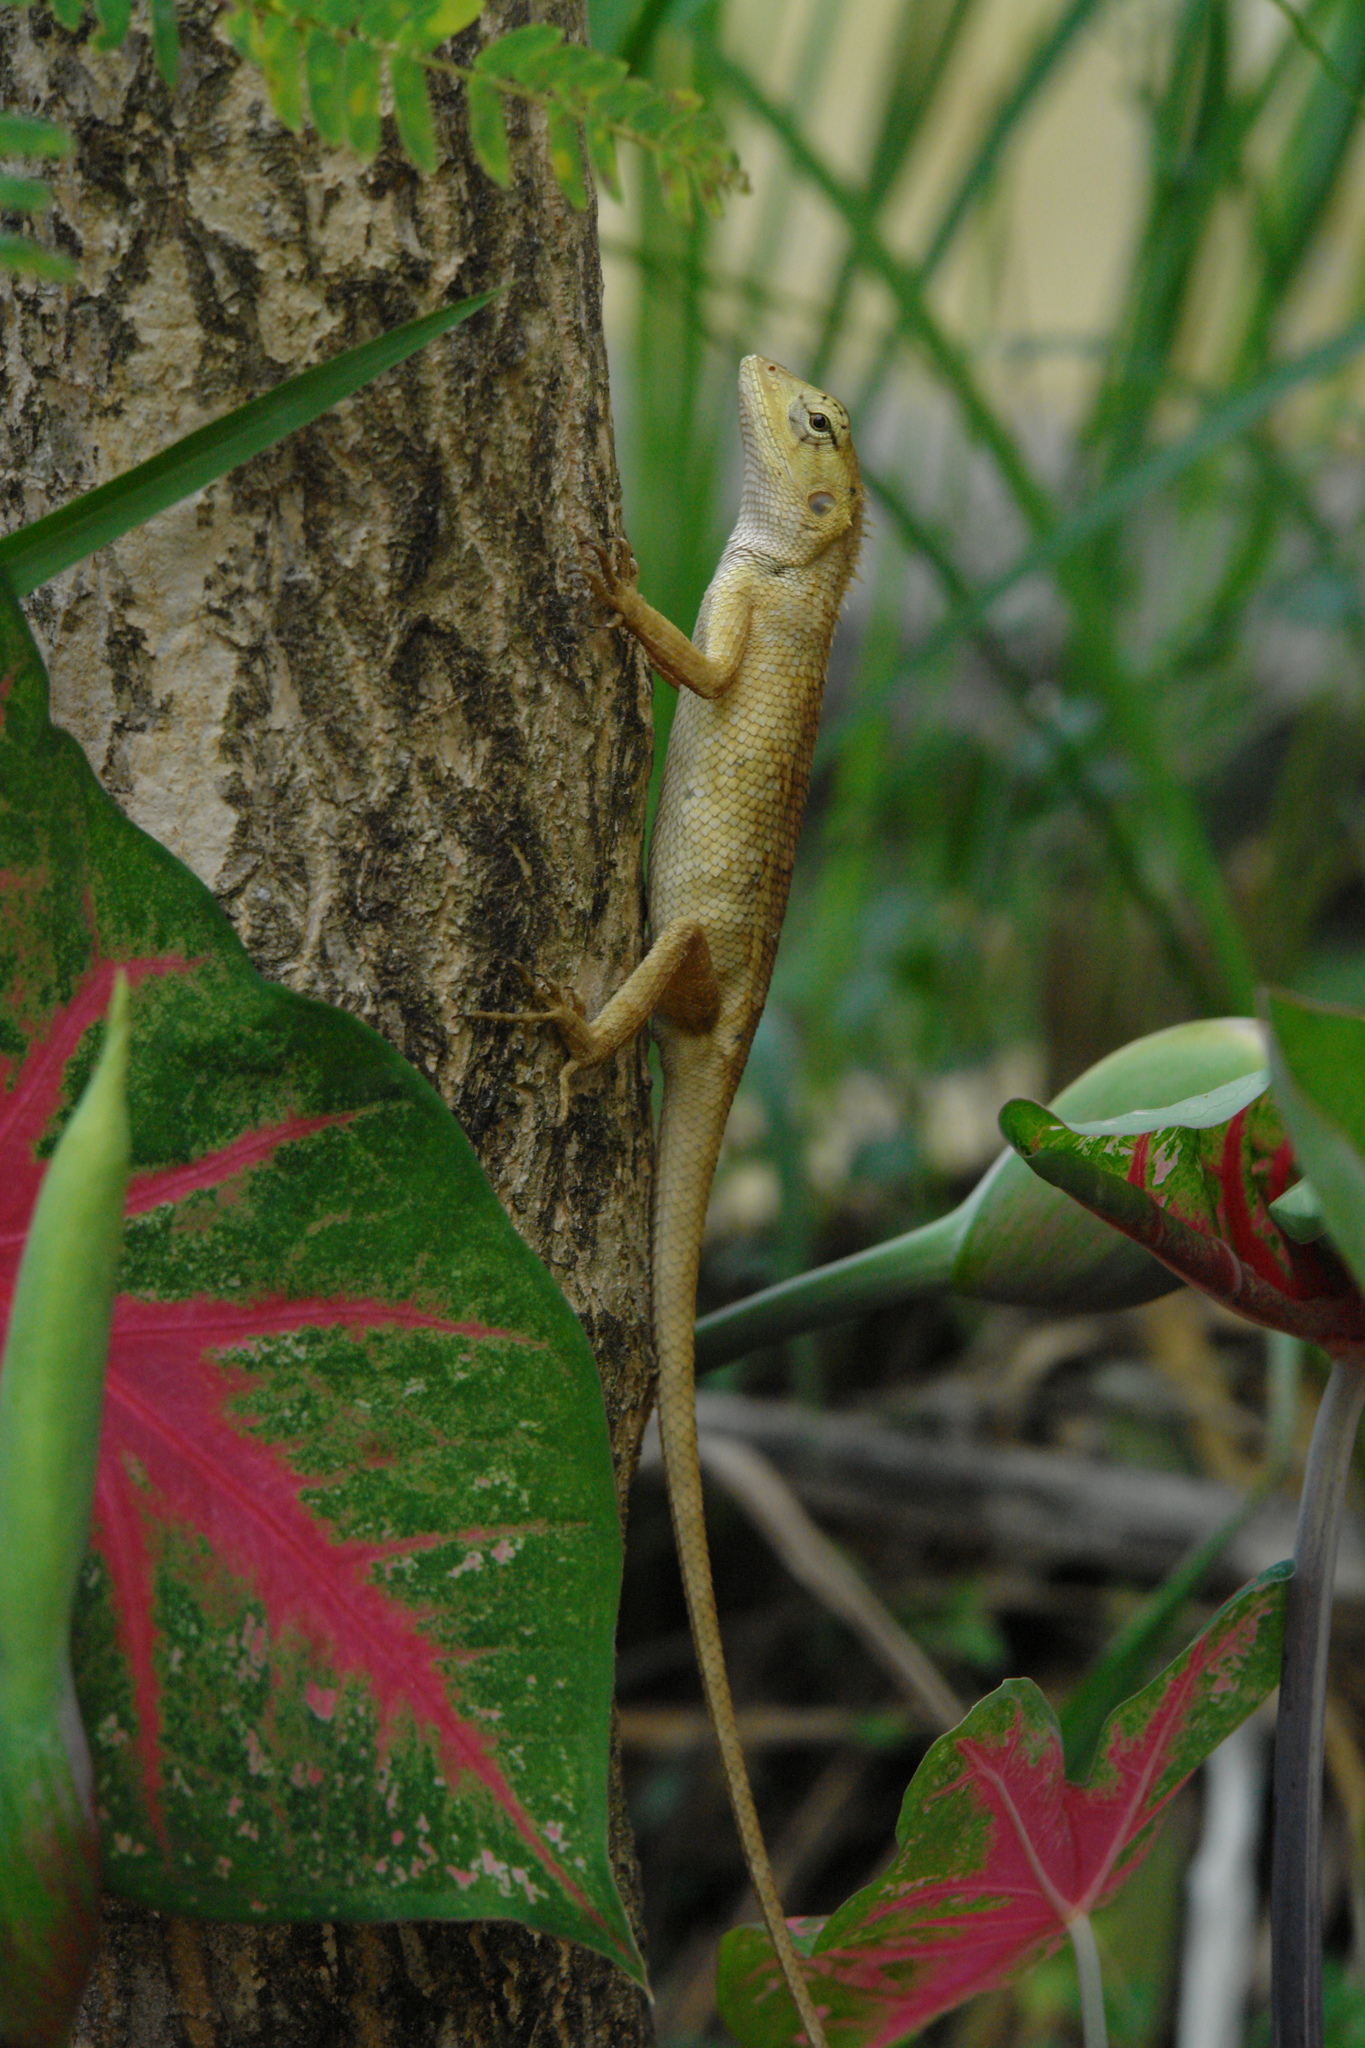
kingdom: Animalia
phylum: Chordata
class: Squamata
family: Agamidae
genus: Calotes
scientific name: Calotes versicolor
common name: Oriental garden lizard
